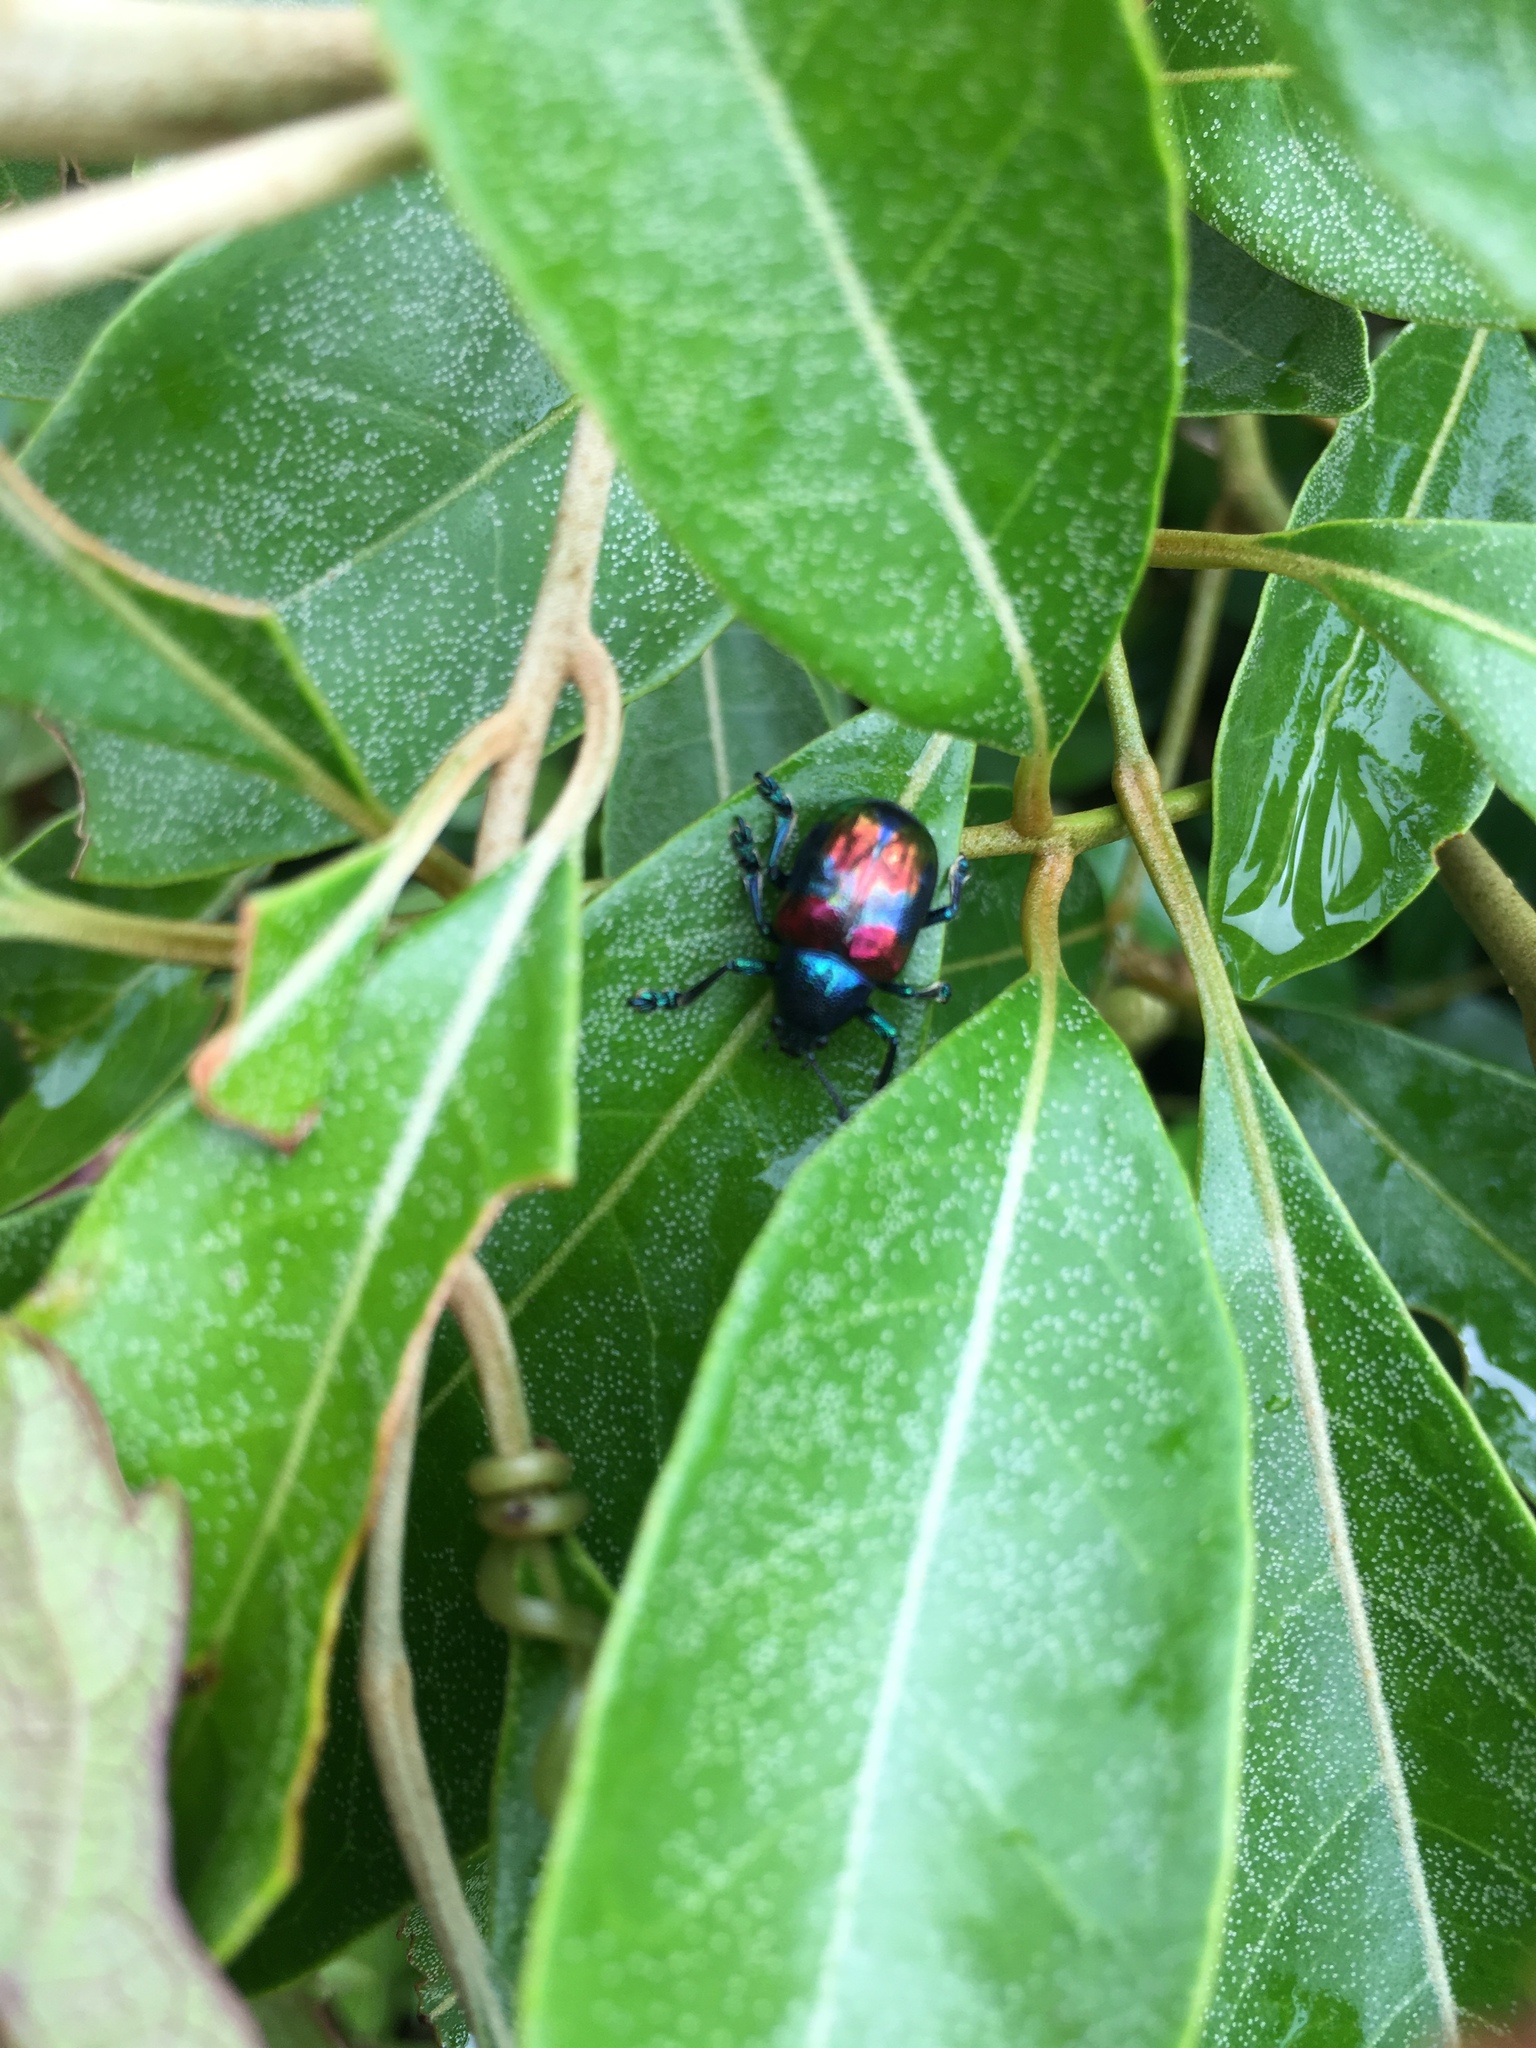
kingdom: Animalia
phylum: Arthropoda
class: Insecta
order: Coleoptera
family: Chrysomelidae
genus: Platycorynus
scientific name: Platycorynus undatus
